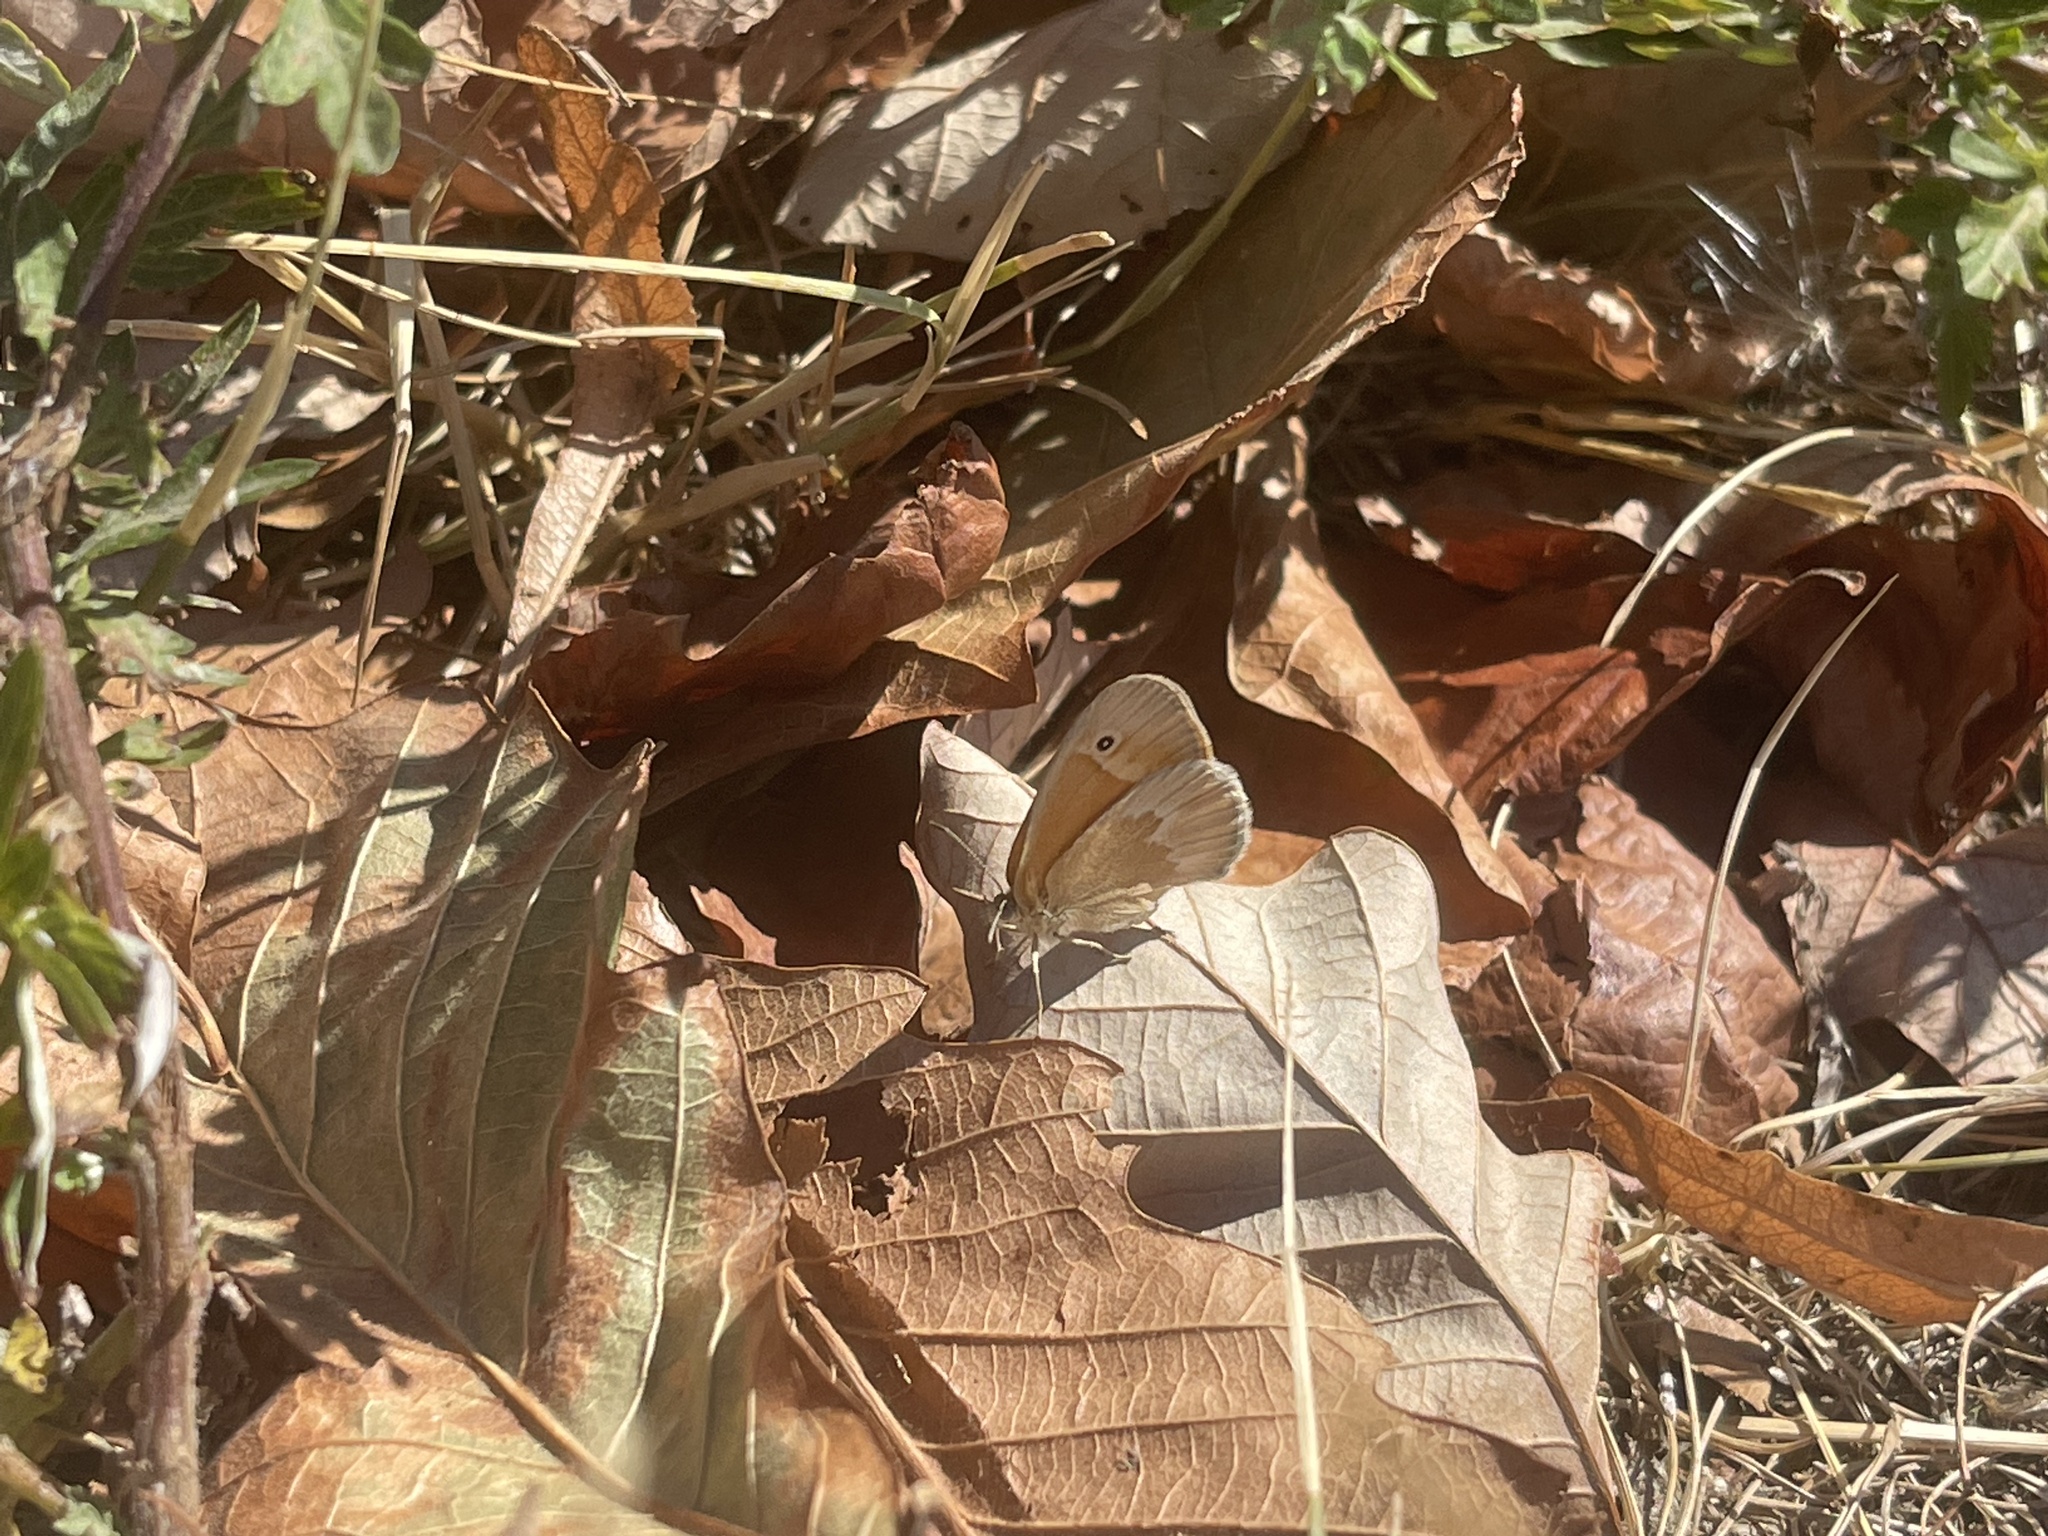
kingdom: Animalia
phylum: Arthropoda
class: Insecta
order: Lepidoptera
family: Nymphalidae
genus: Coenonympha
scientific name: Coenonympha california
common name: Common ringlet
